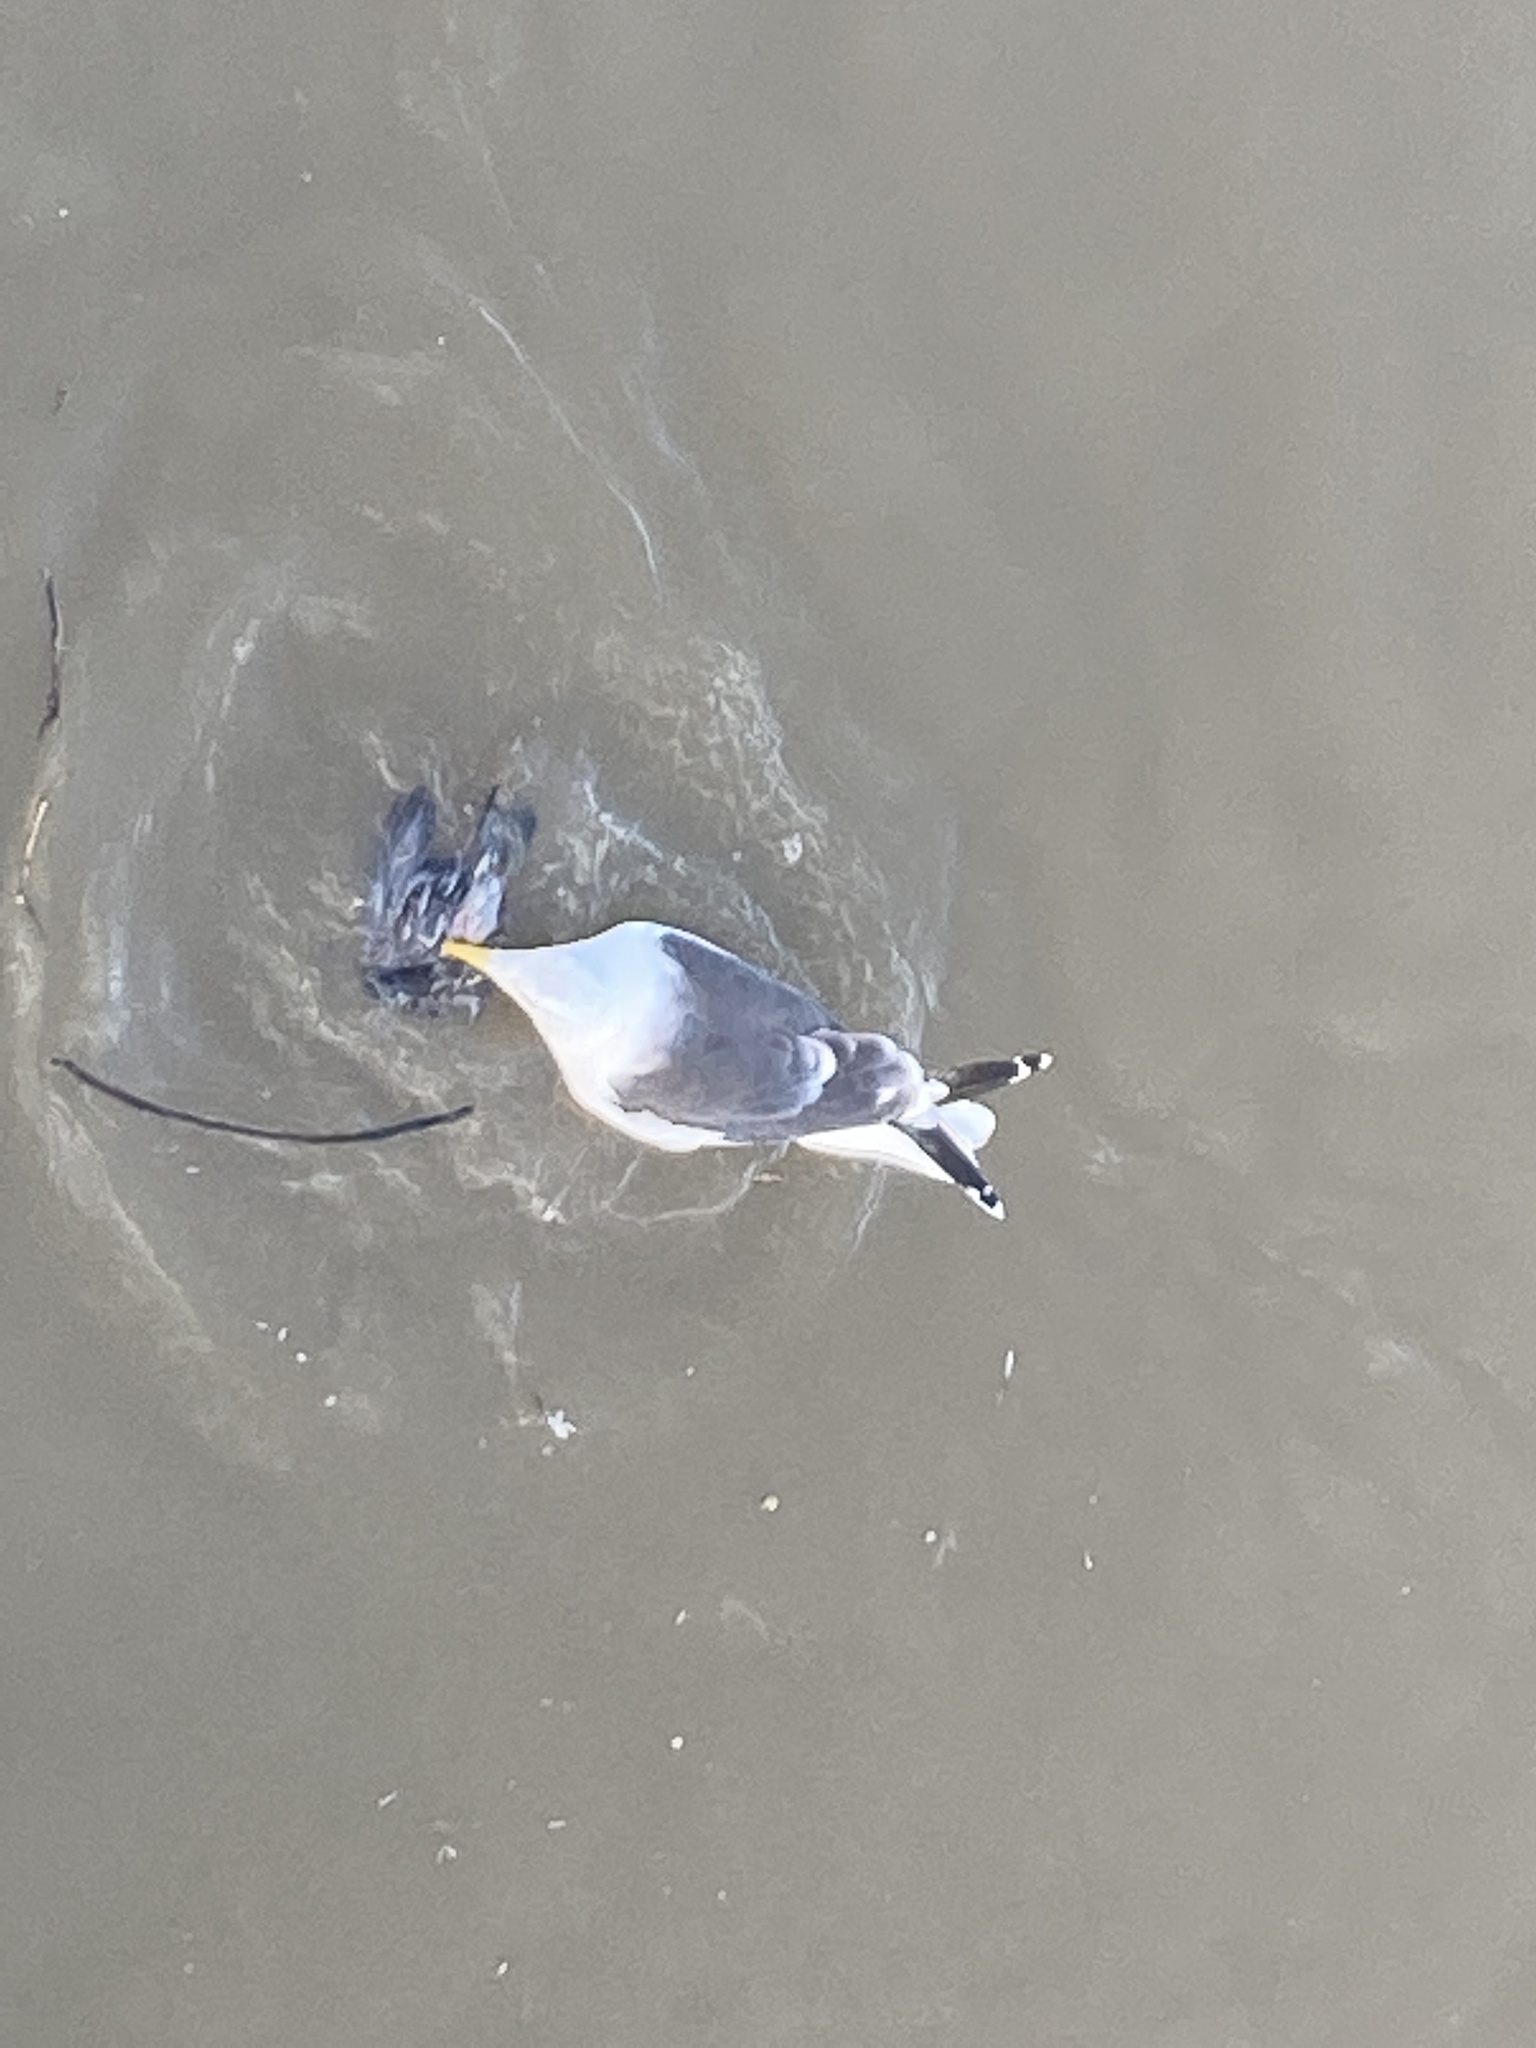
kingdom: Animalia
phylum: Chordata
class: Aves
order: Charadriiformes
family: Laridae
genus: Larus
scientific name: Larus fuscus
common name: Lesser black-backed gull
